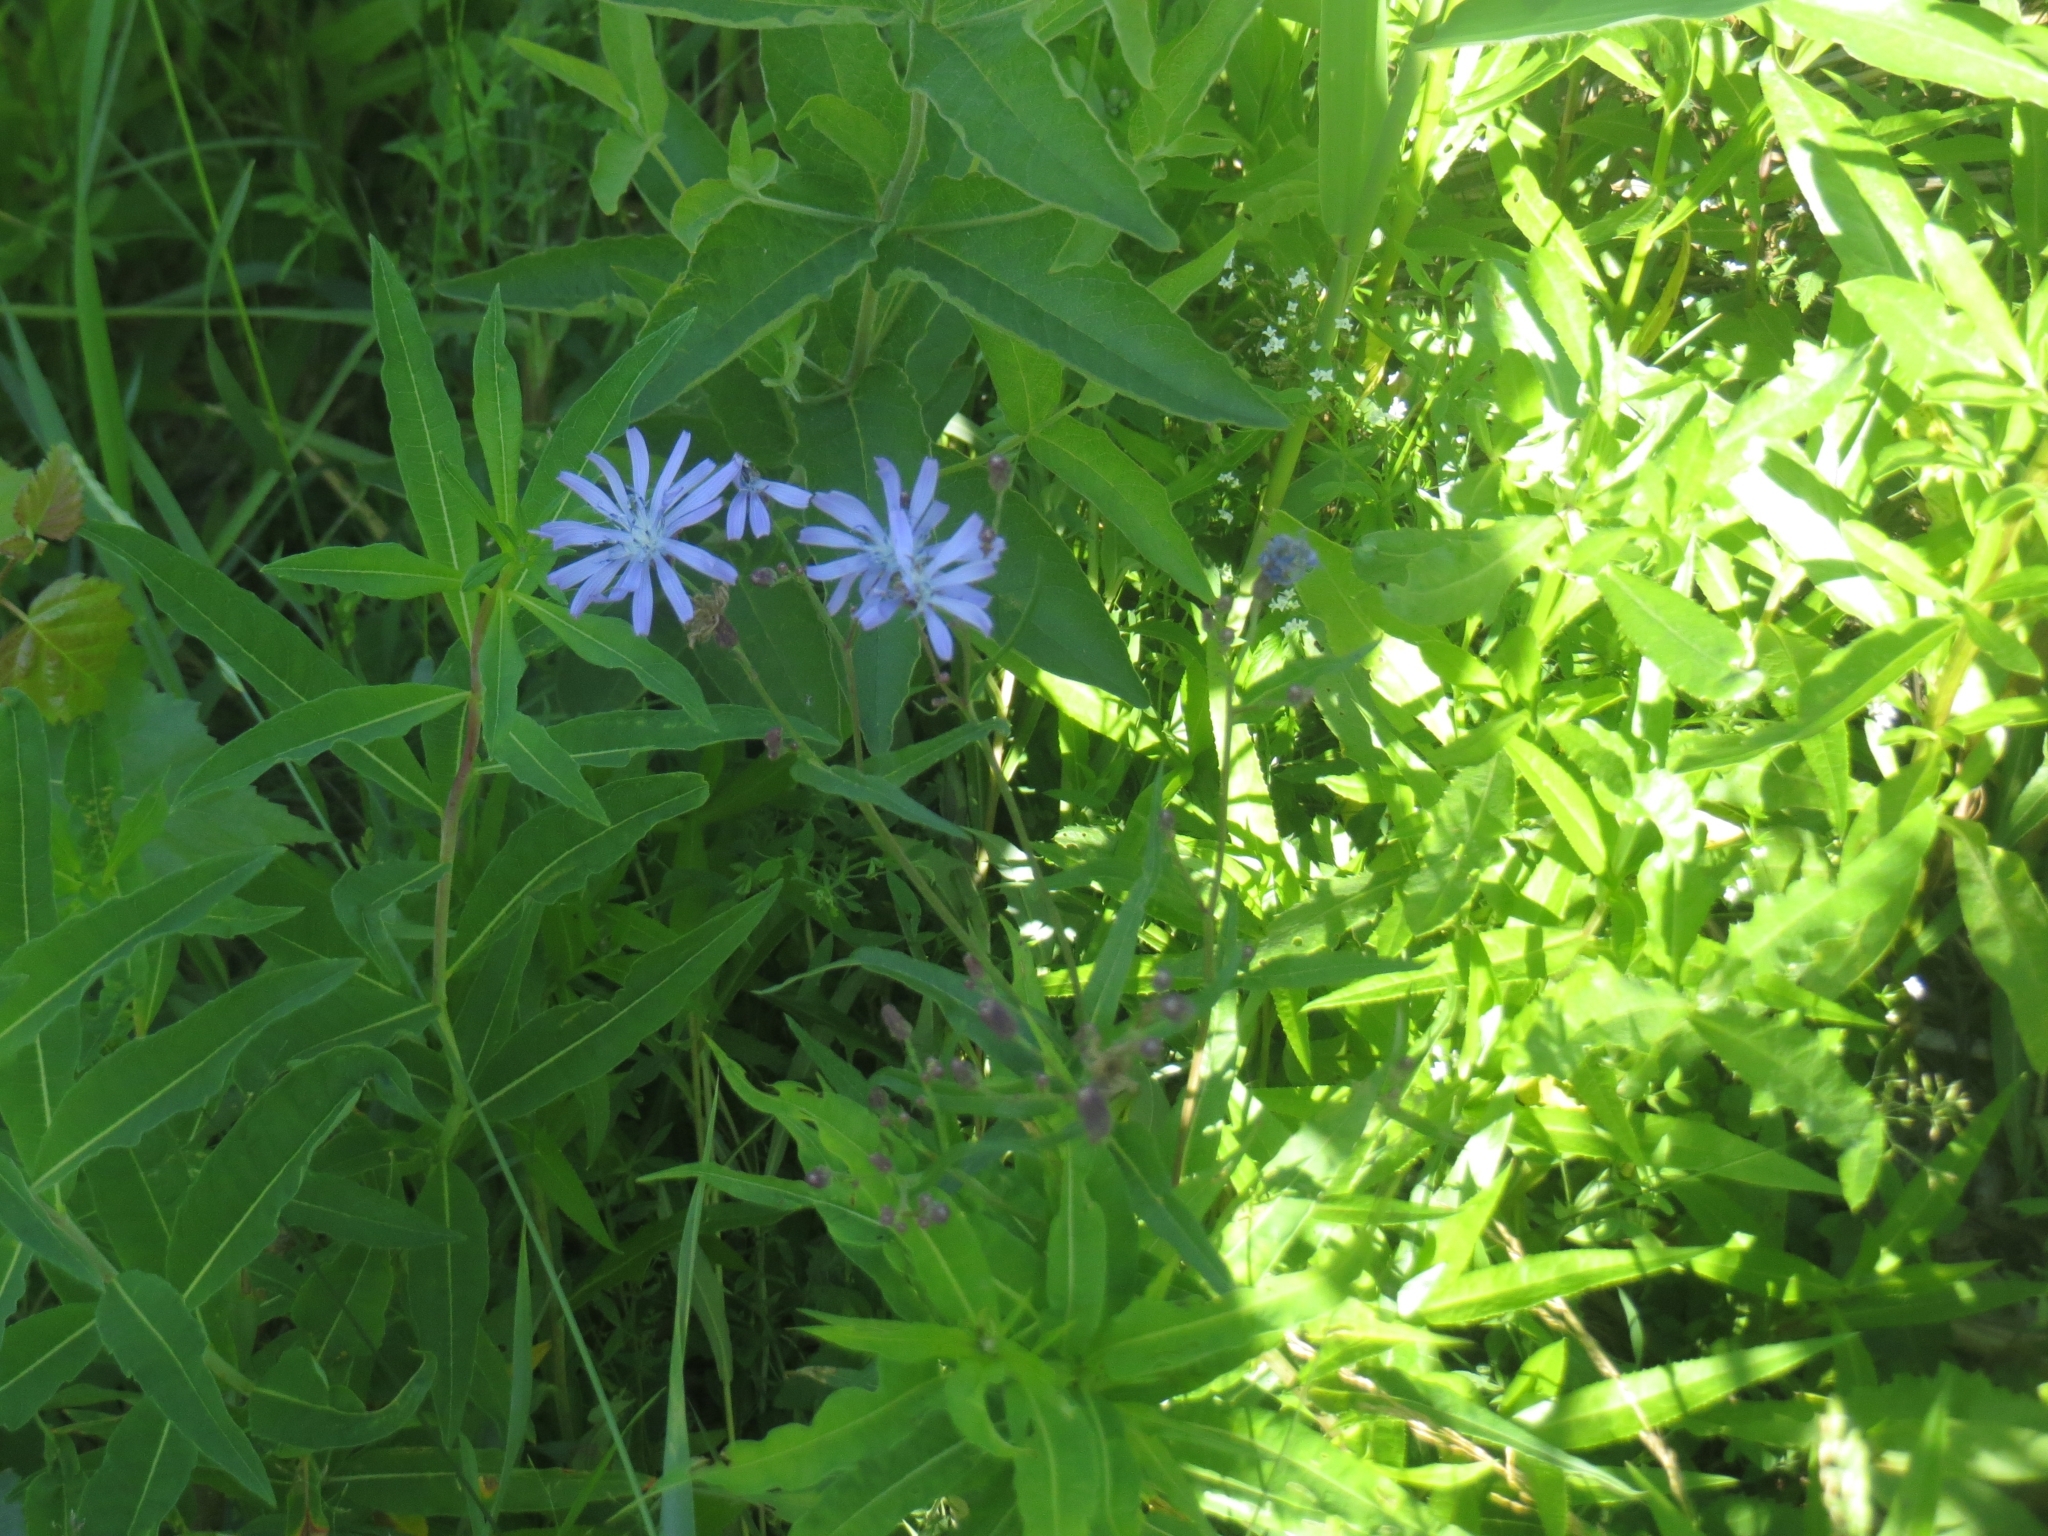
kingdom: Plantae
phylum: Tracheophyta
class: Magnoliopsida
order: Asterales
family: Asteraceae
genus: Lactuca
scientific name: Lactuca tatarica
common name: Blue lettuce
